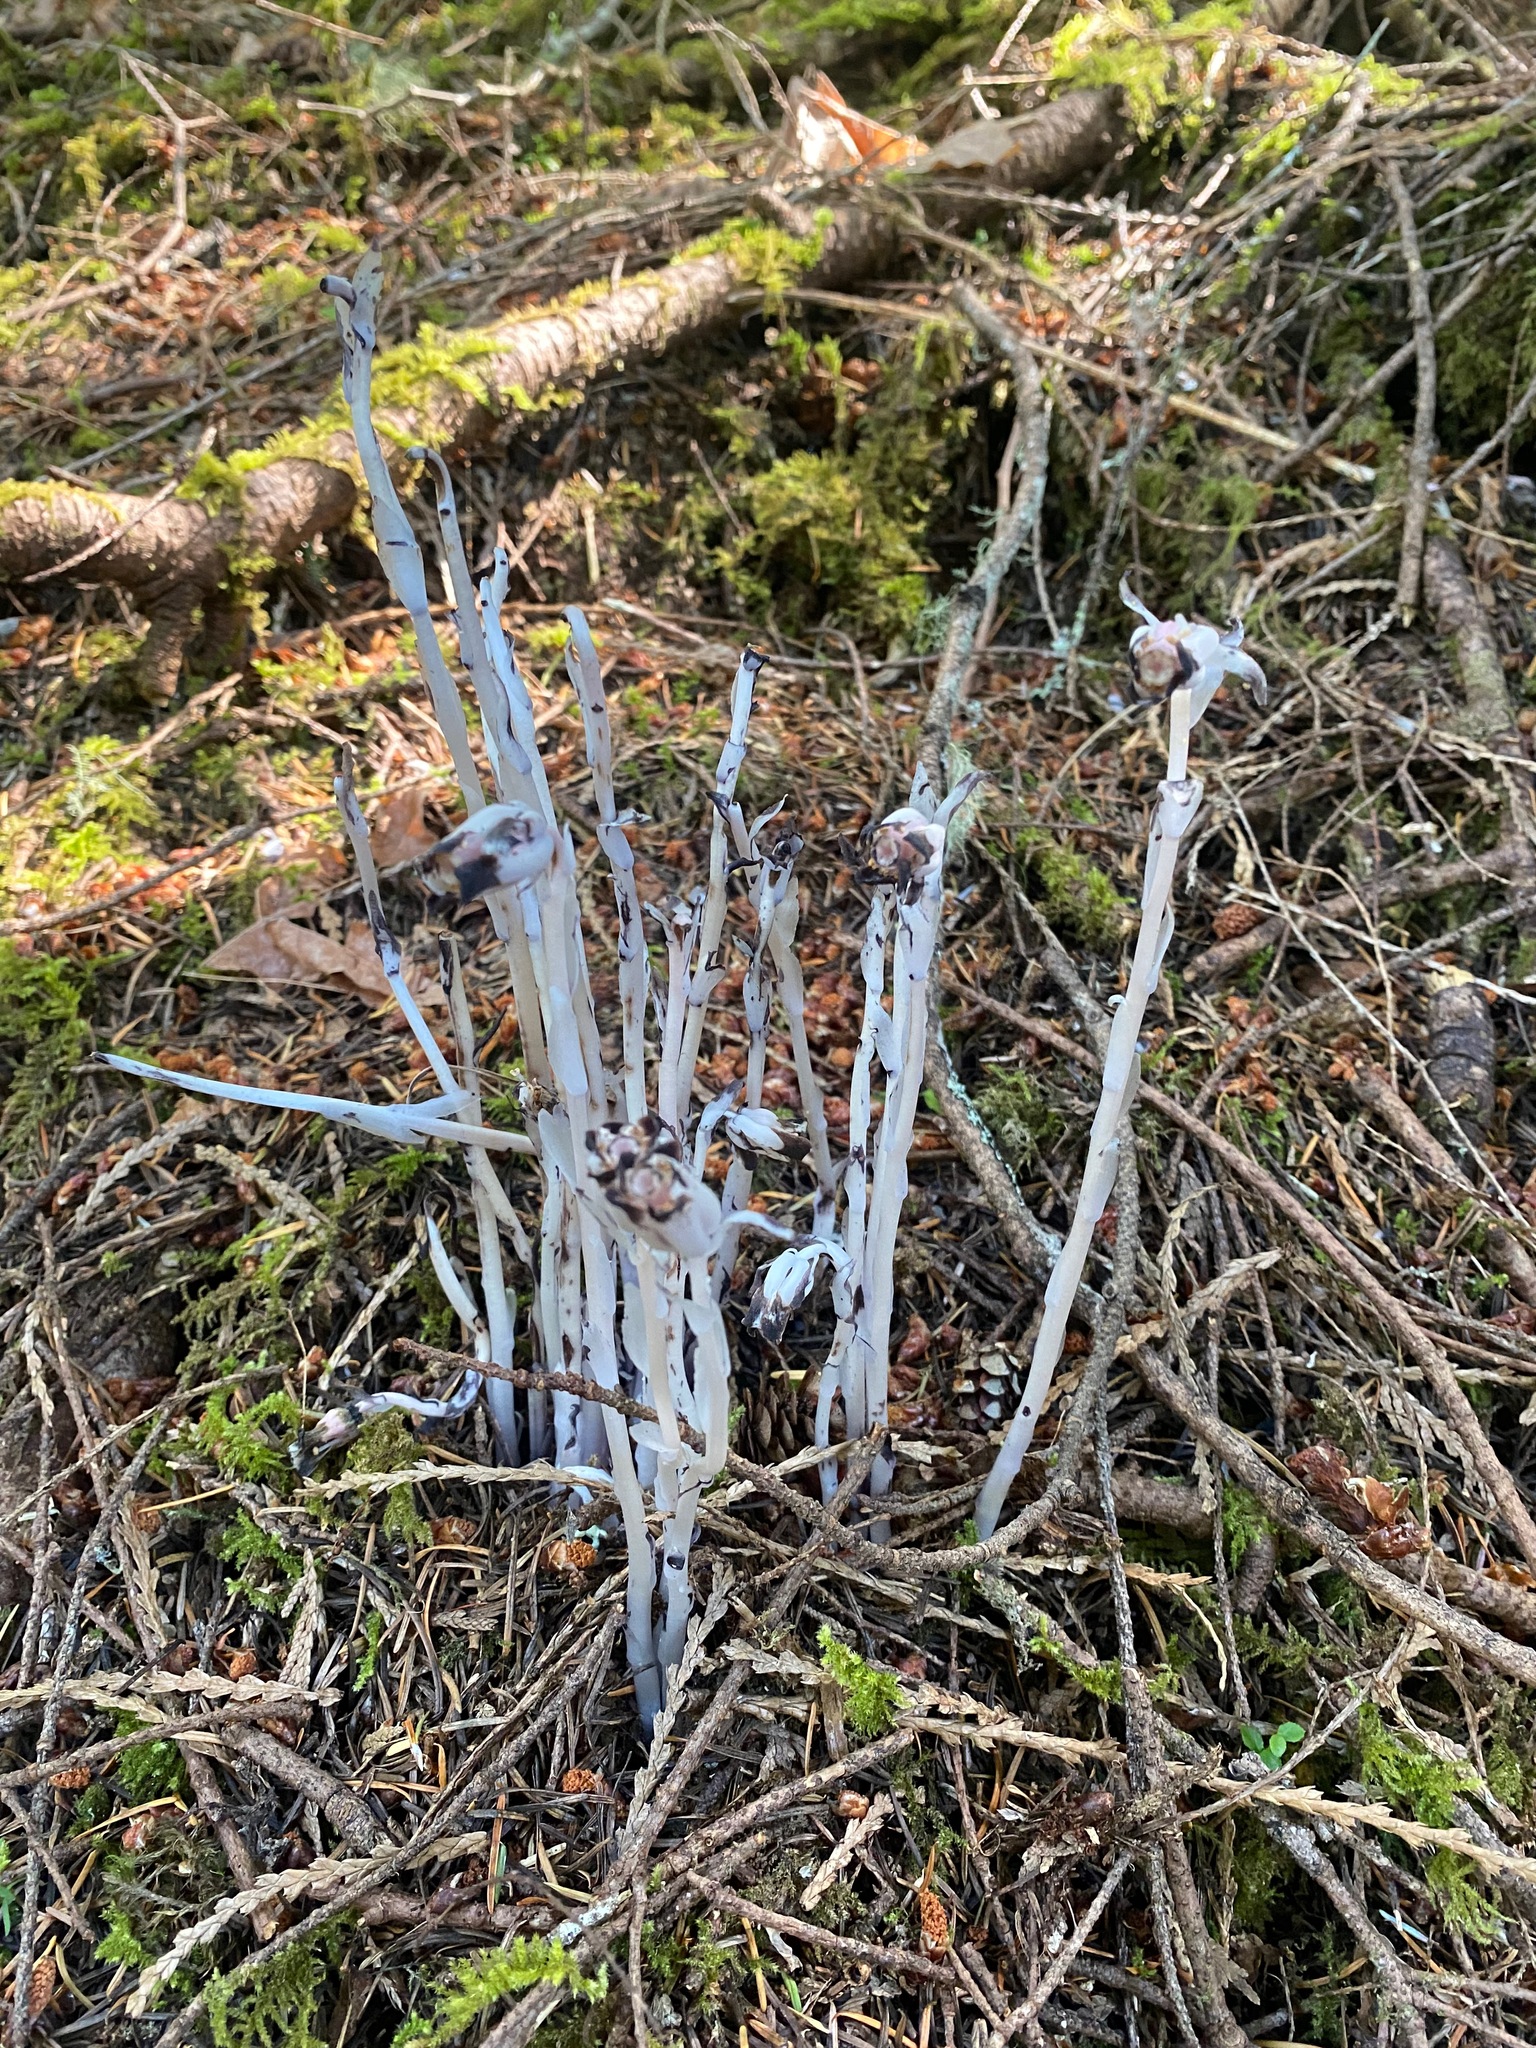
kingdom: Plantae
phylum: Tracheophyta
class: Magnoliopsida
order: Ericales
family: Ericaceae
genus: Monotropa
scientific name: Monotropa uniflora
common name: Convulsion root
